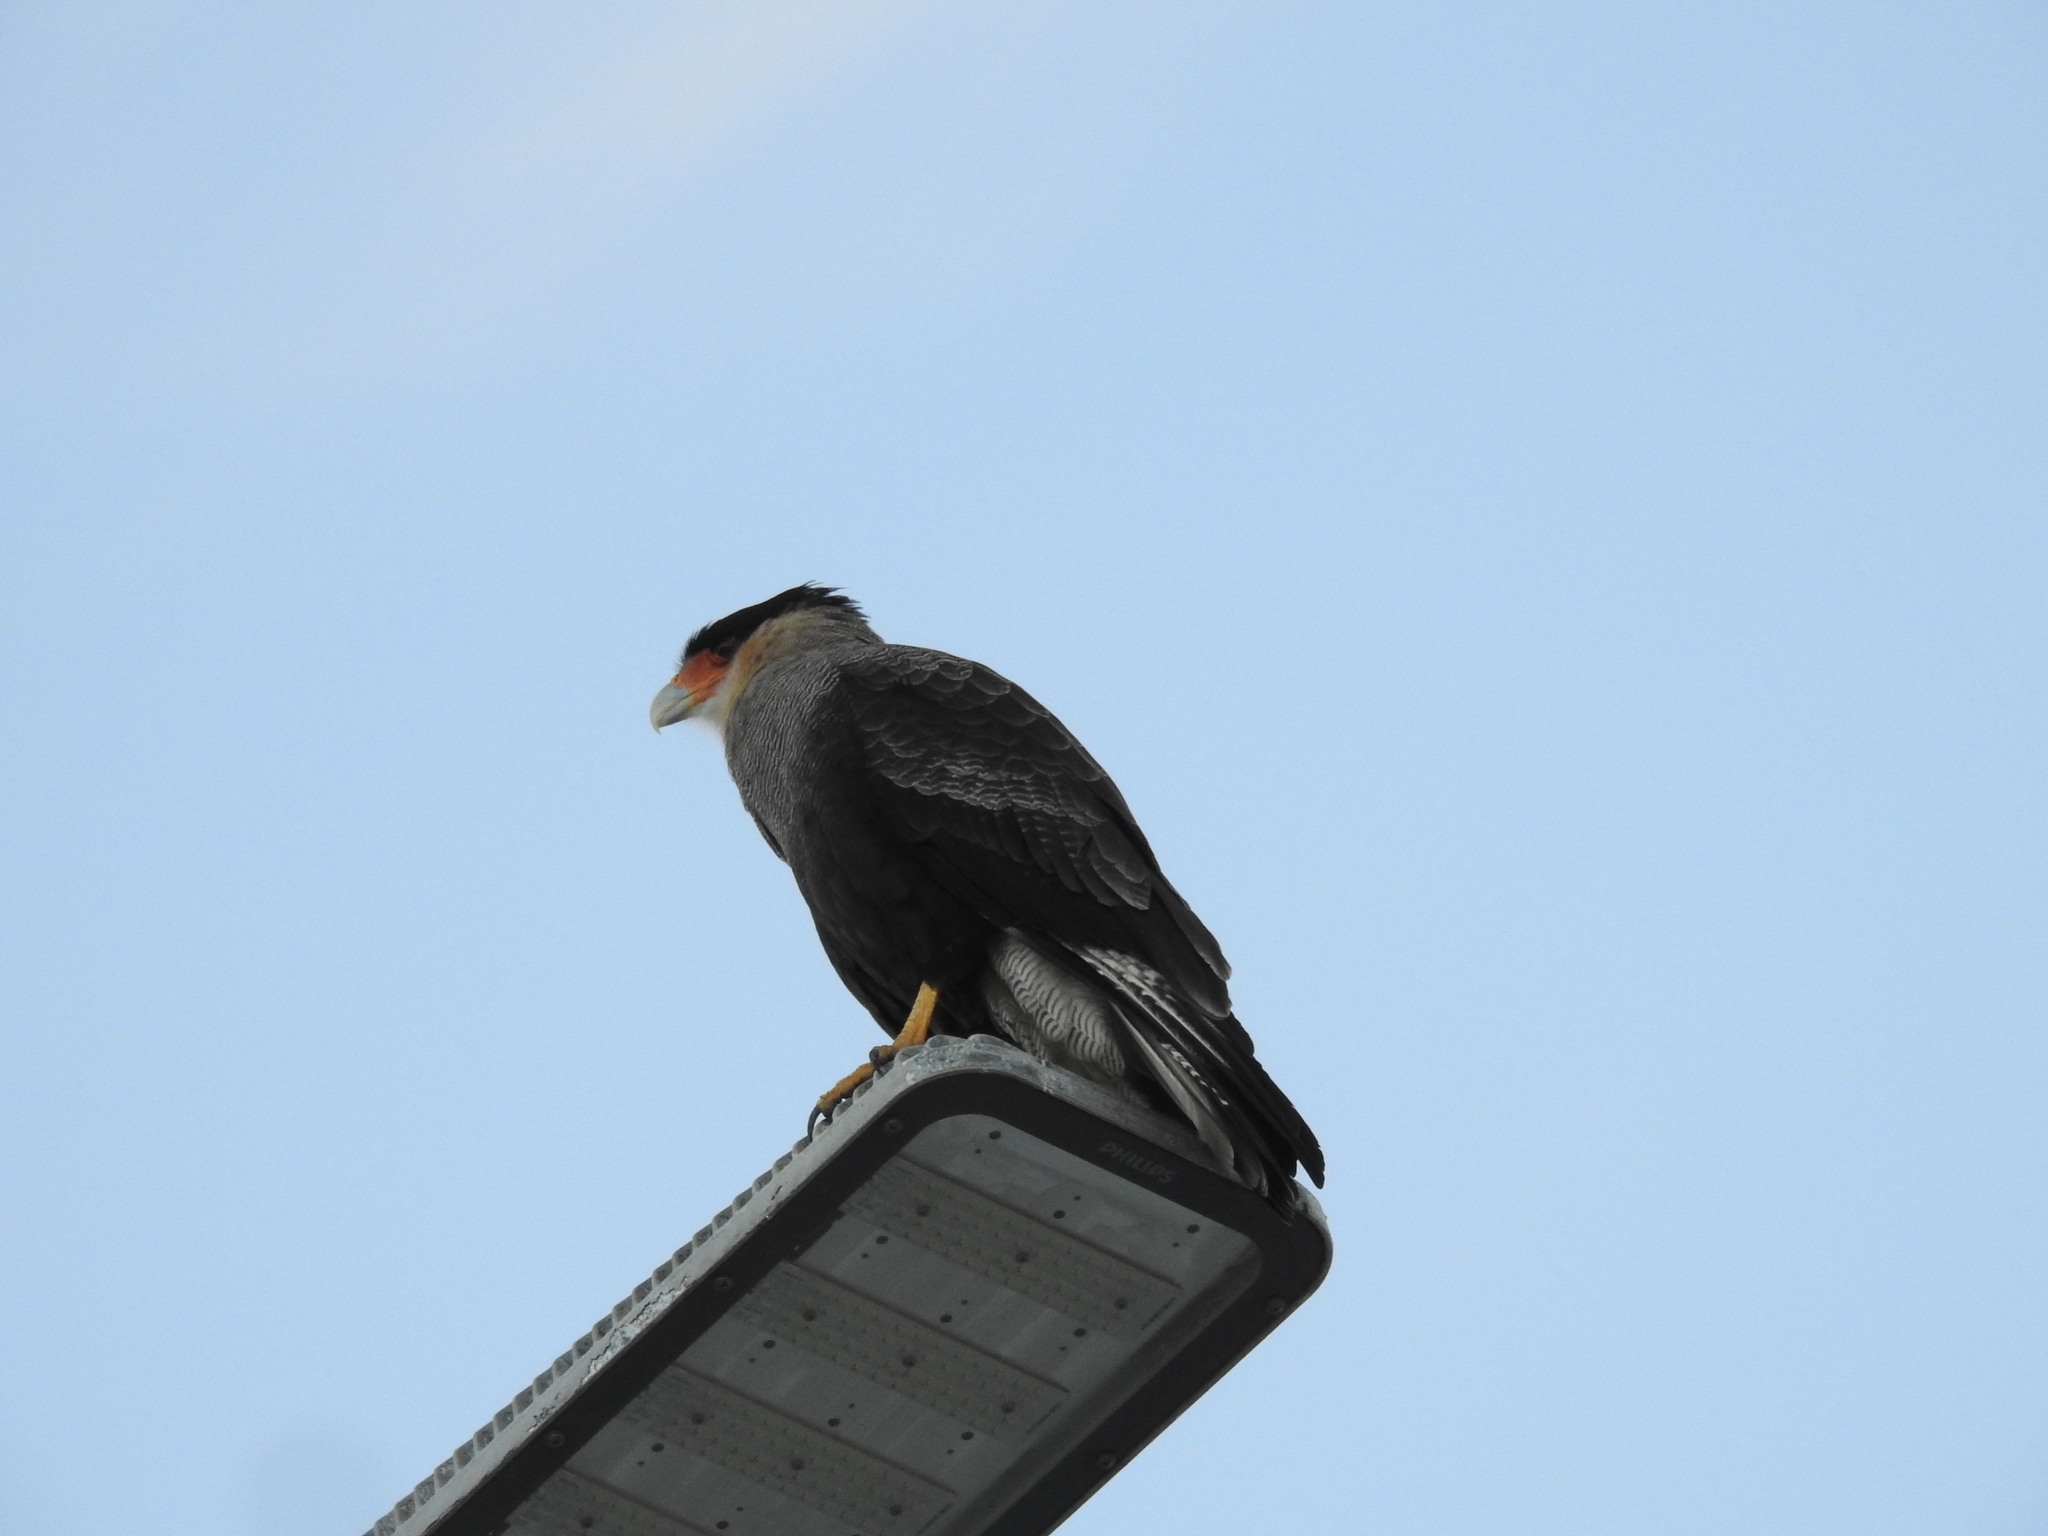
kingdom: Animalia
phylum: Chordata
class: Aves
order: Falconiformes
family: Falconidae
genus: Caracara
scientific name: Caracara plancus
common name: Southern caracara
